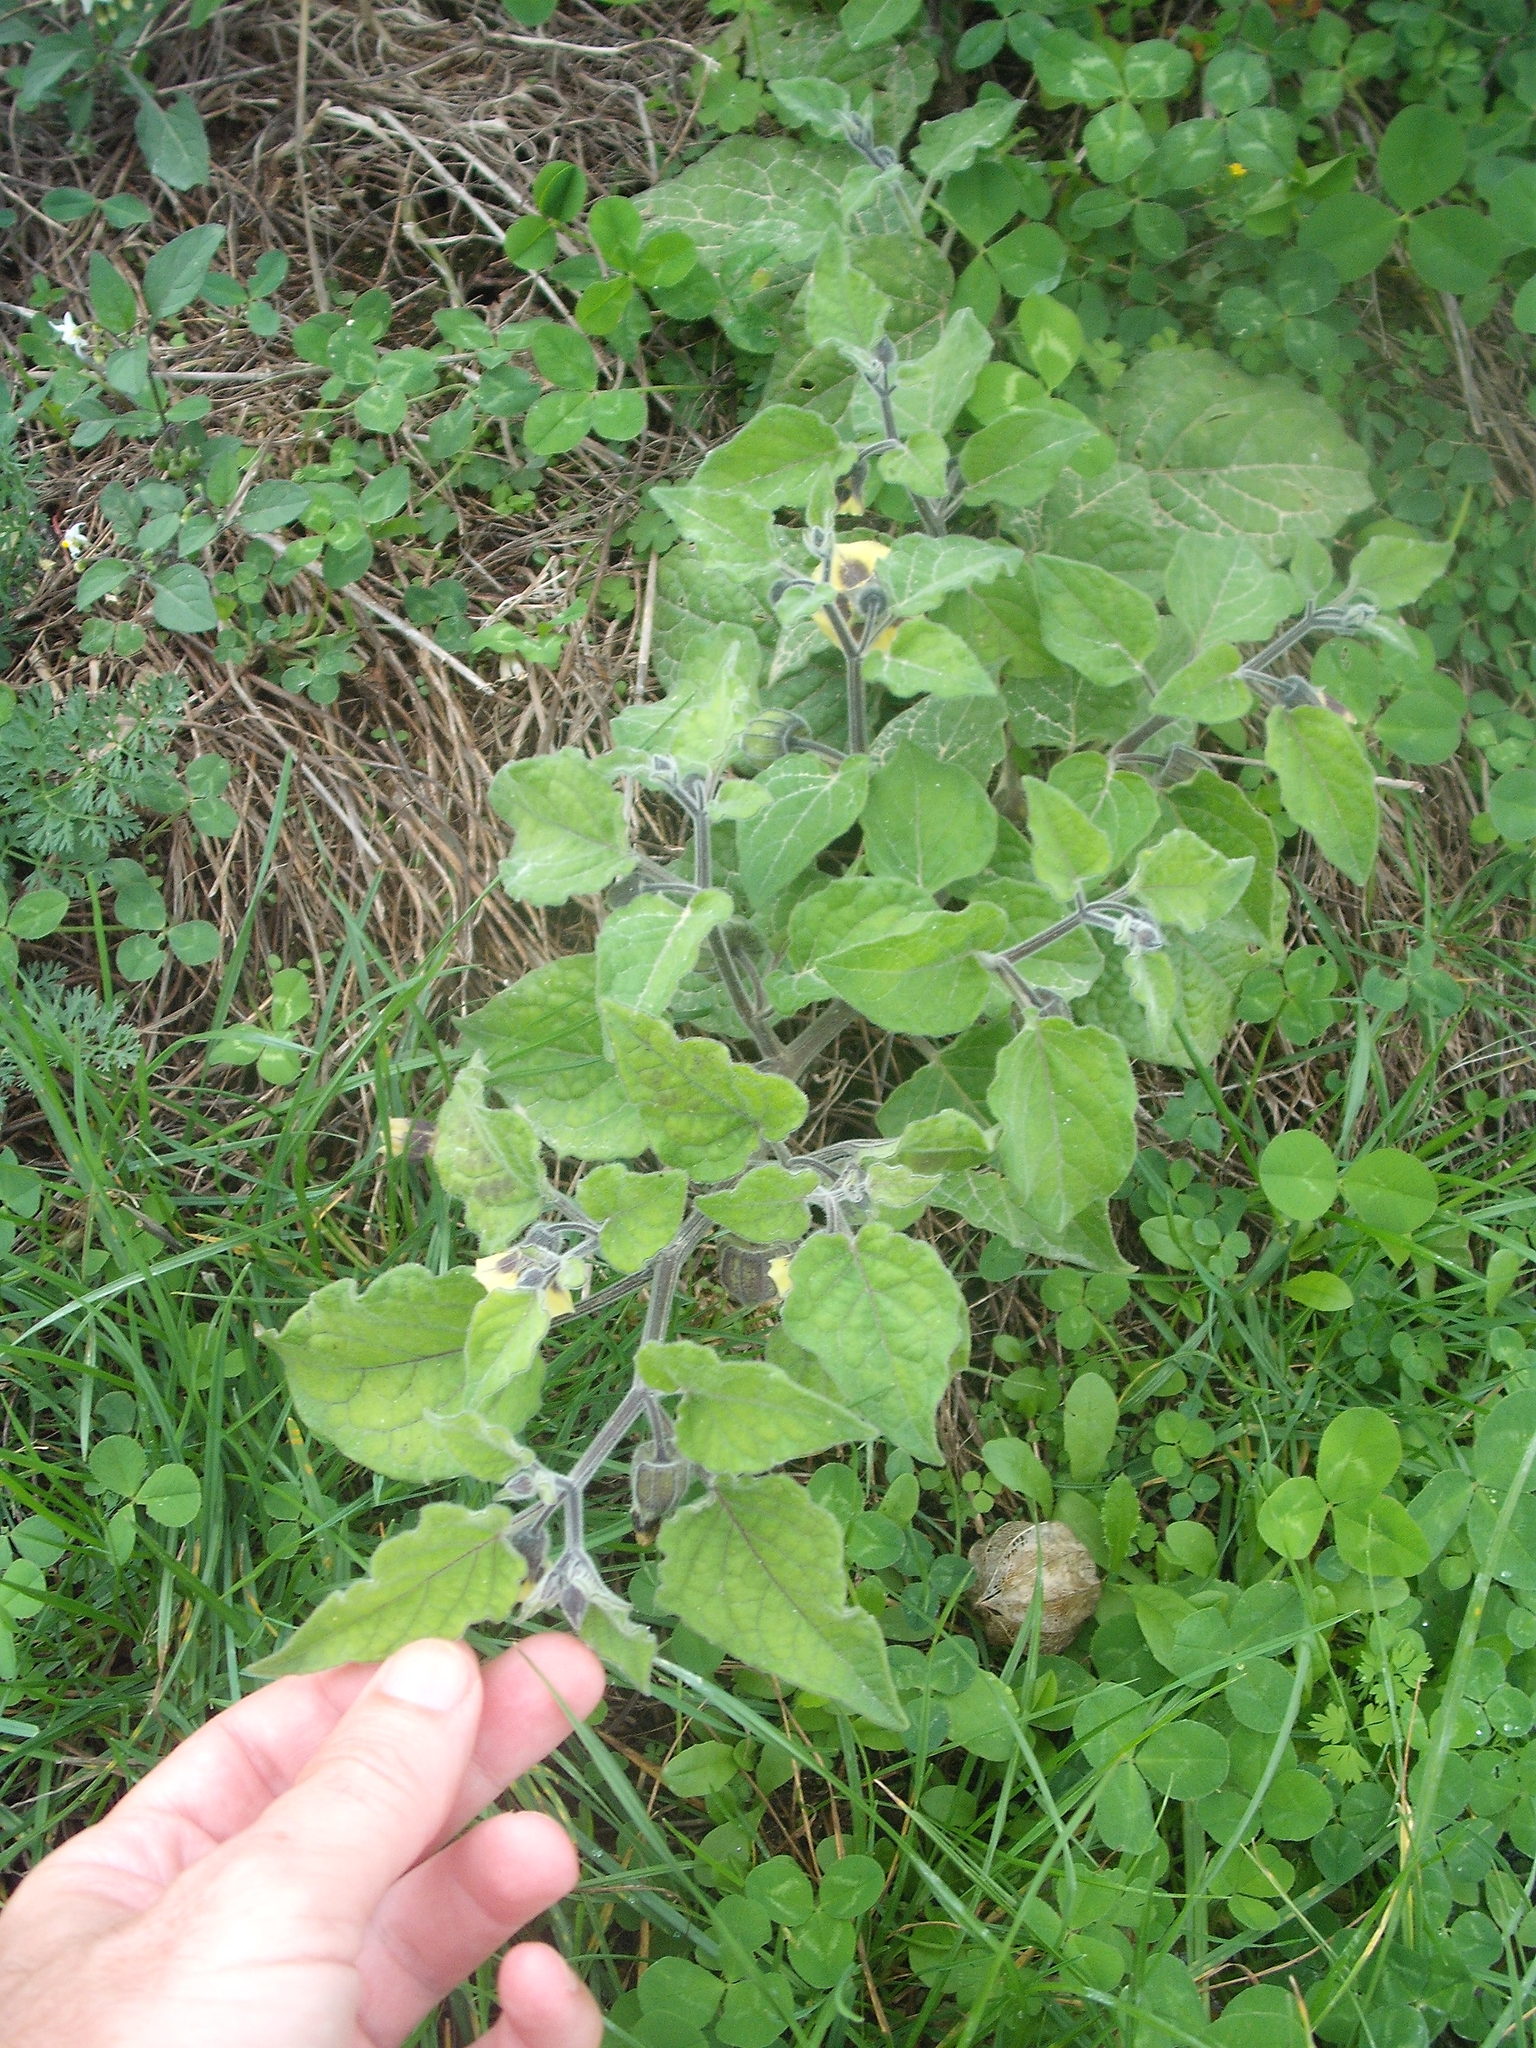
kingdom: Plantae
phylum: Tracheophyta
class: Magnoliopsida
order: Solanales
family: Solanaceae
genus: Physalis
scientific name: Physalis peruviana
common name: Cape-gooseberry
